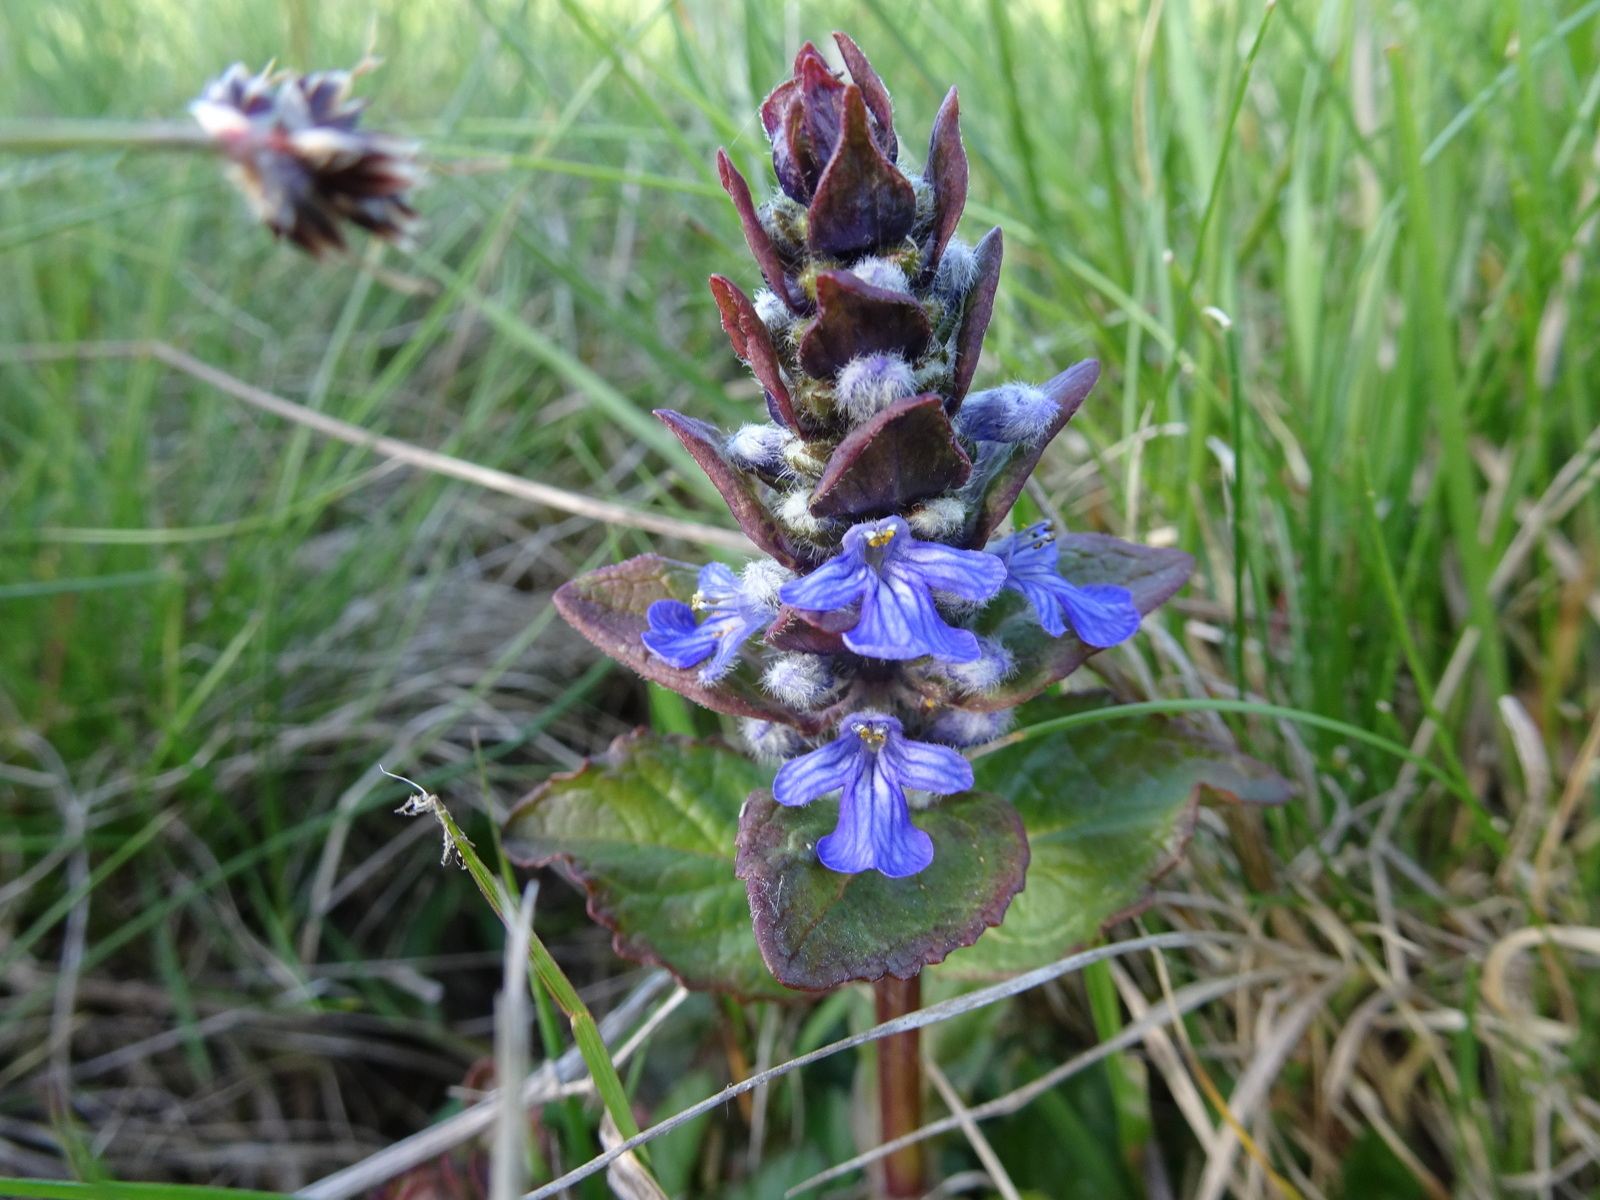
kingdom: Plantae
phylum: Tracheophyta
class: Magnoliopsida
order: Lamiales
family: Lamiaceae
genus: Ajuga
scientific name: Ajuga reptans
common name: Bugle
